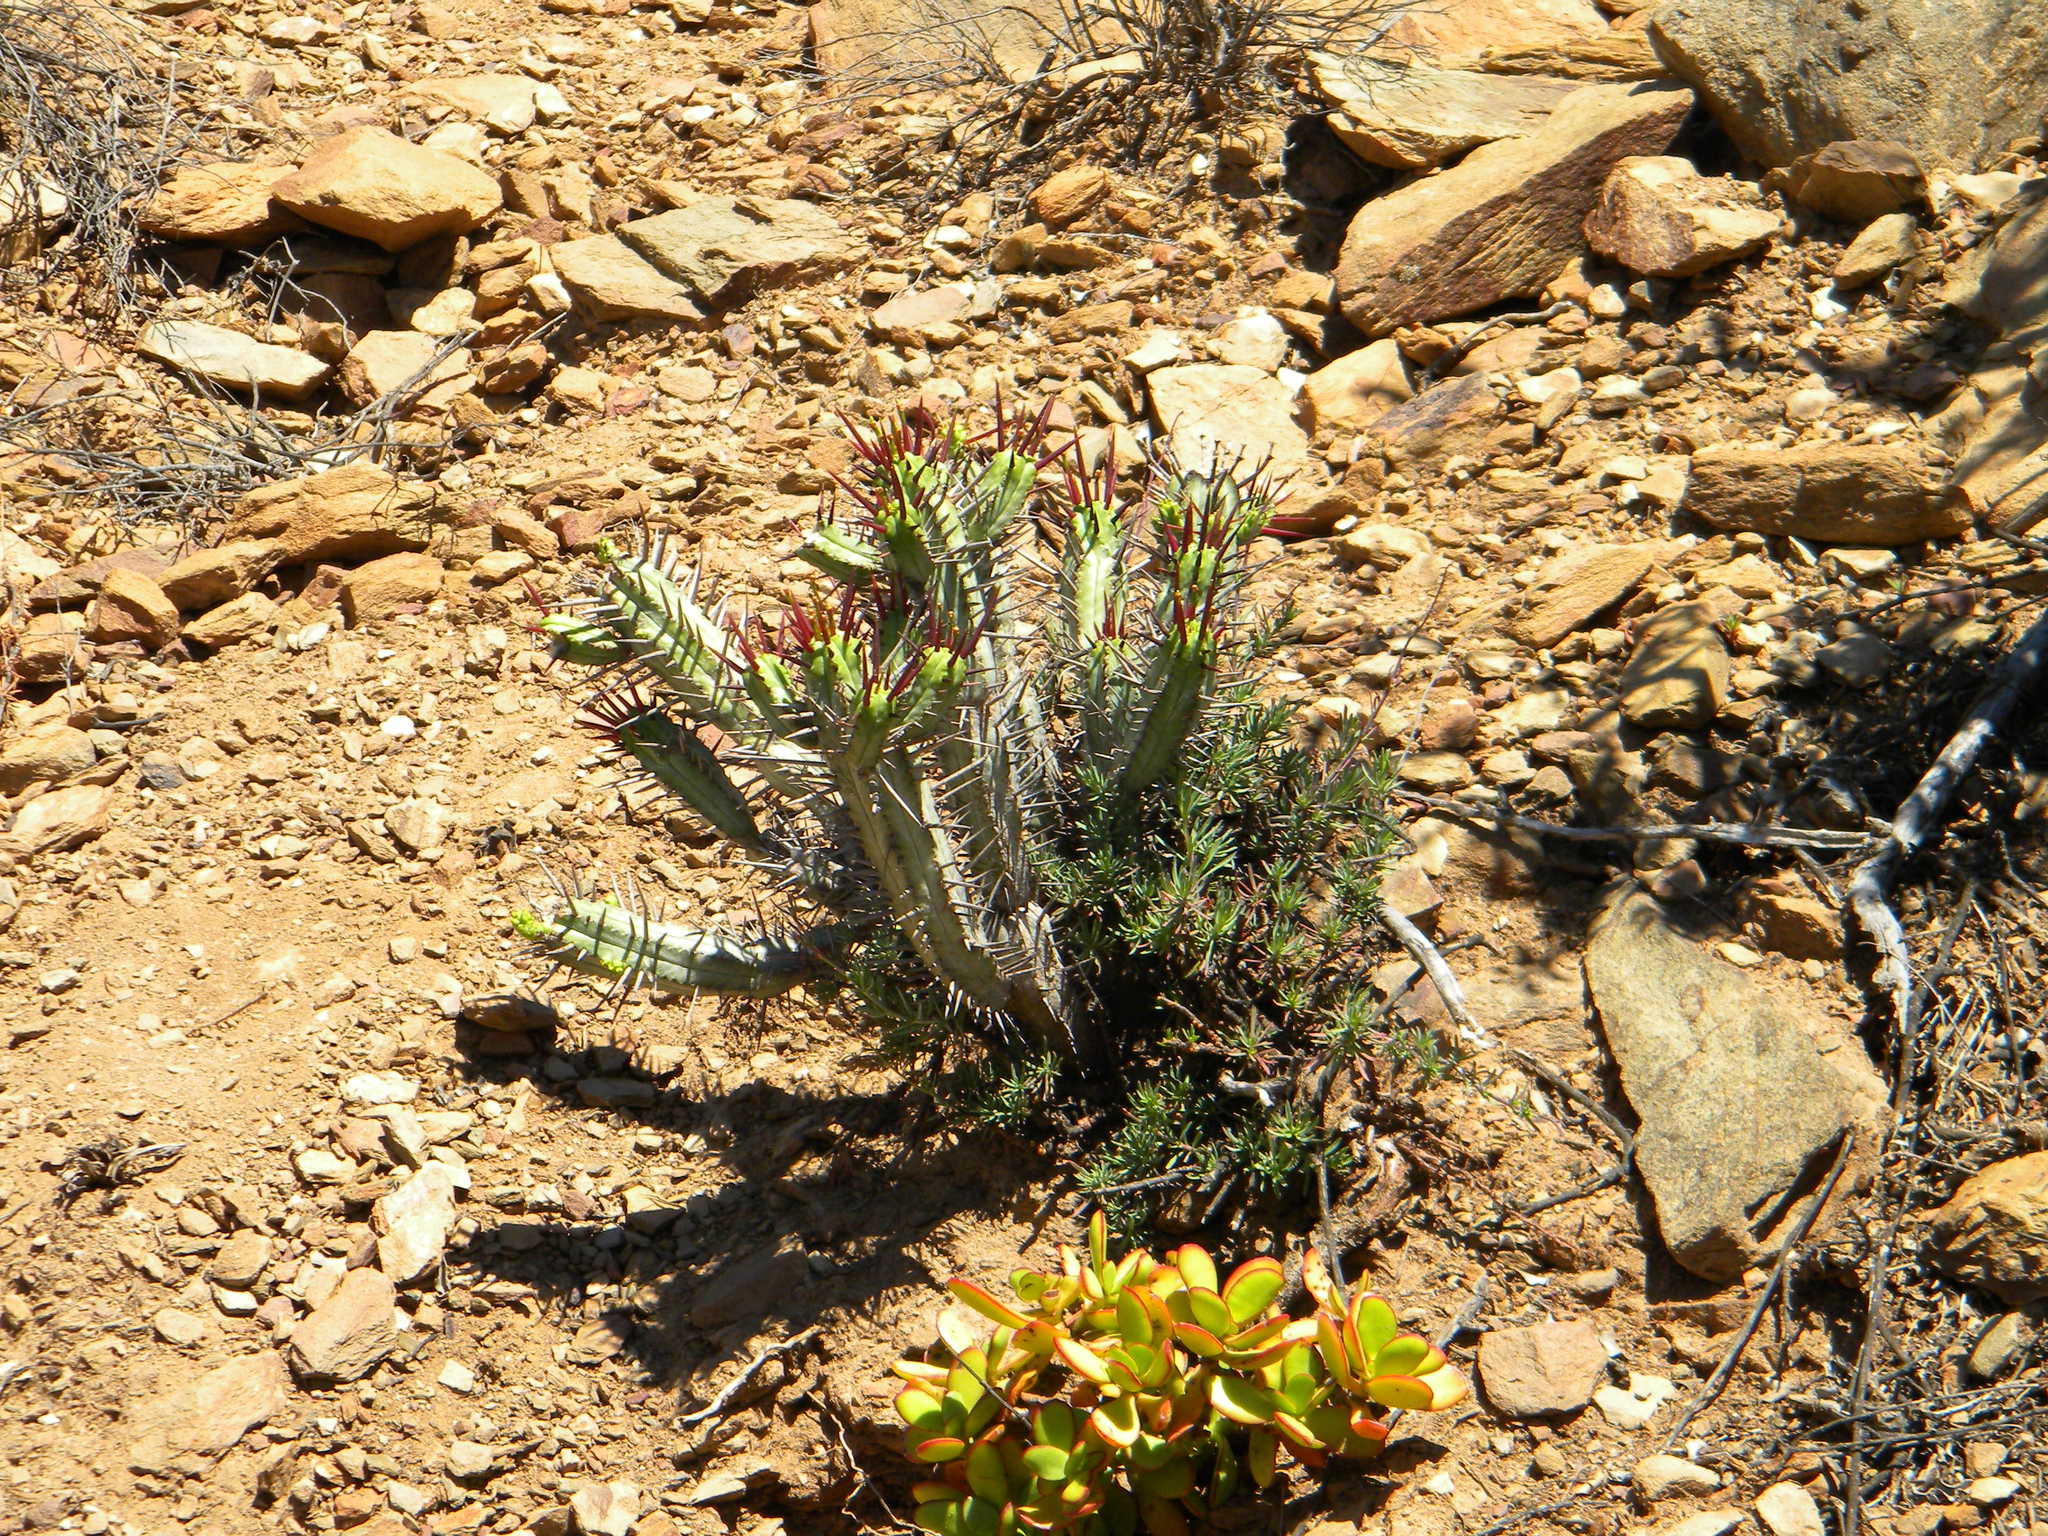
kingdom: Plantae
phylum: Tracheophyta
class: Magnoliopsida
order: Malpighiales
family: Euphorbiaceae
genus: Euphorbia
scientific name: Euphorbia heptagona
